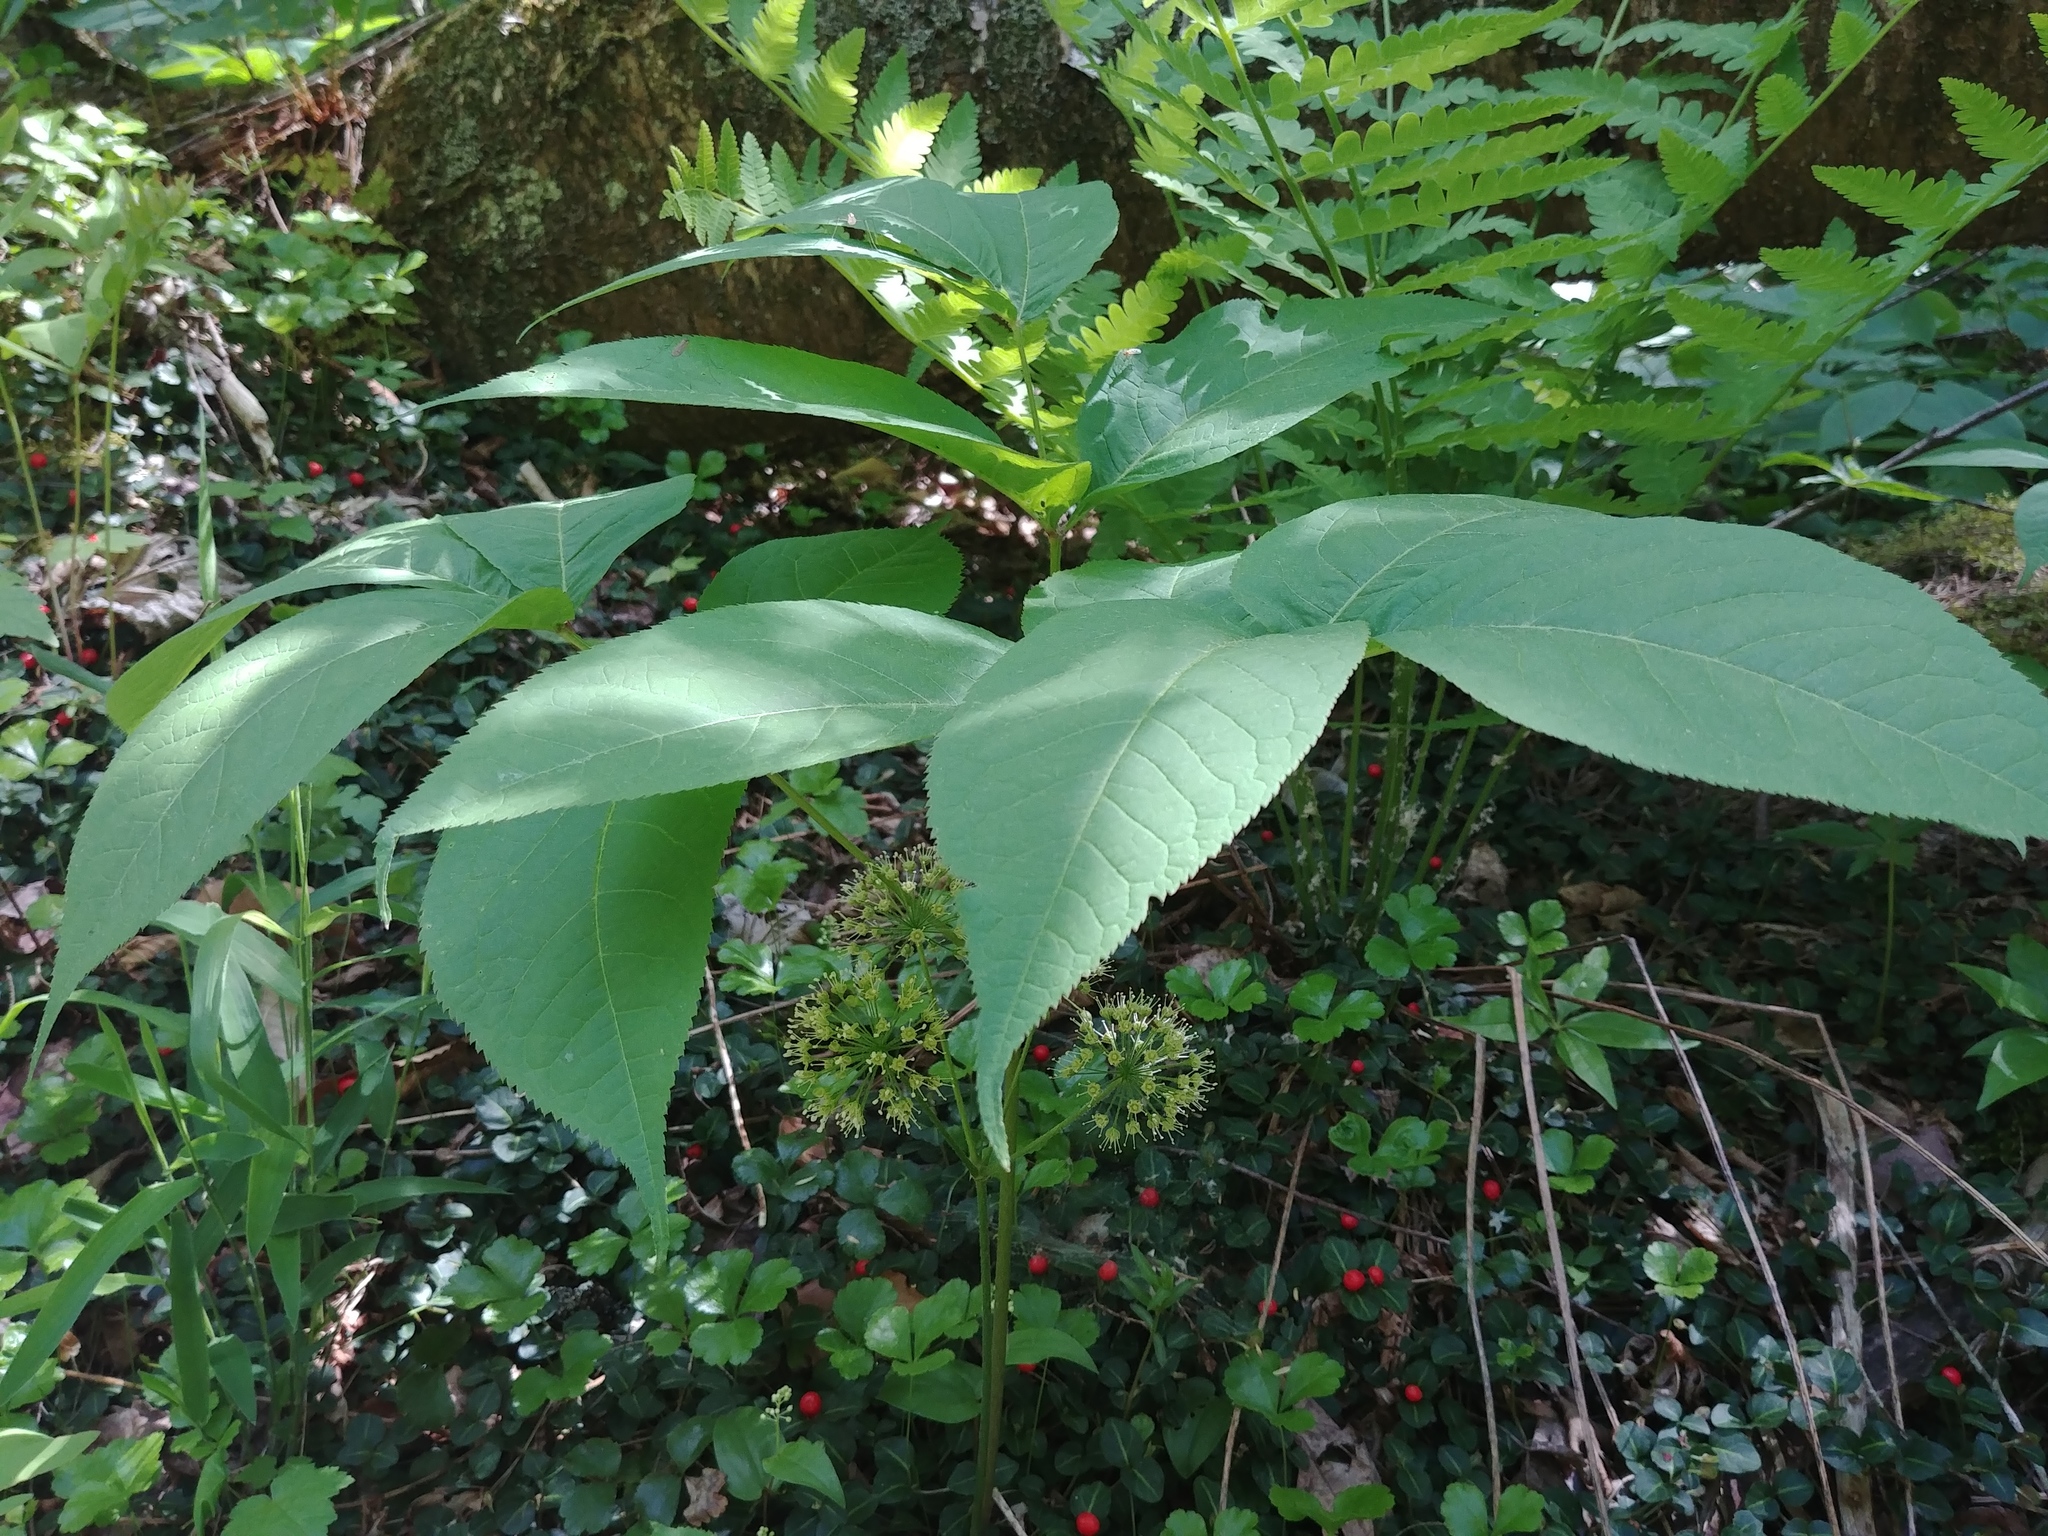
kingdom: Plantae
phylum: Tracheophyta
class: Magnoliopsida
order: Apiales
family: Araliaceae
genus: Aralia
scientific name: Aralia nudicaulis
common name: Wild sarsaparilla
